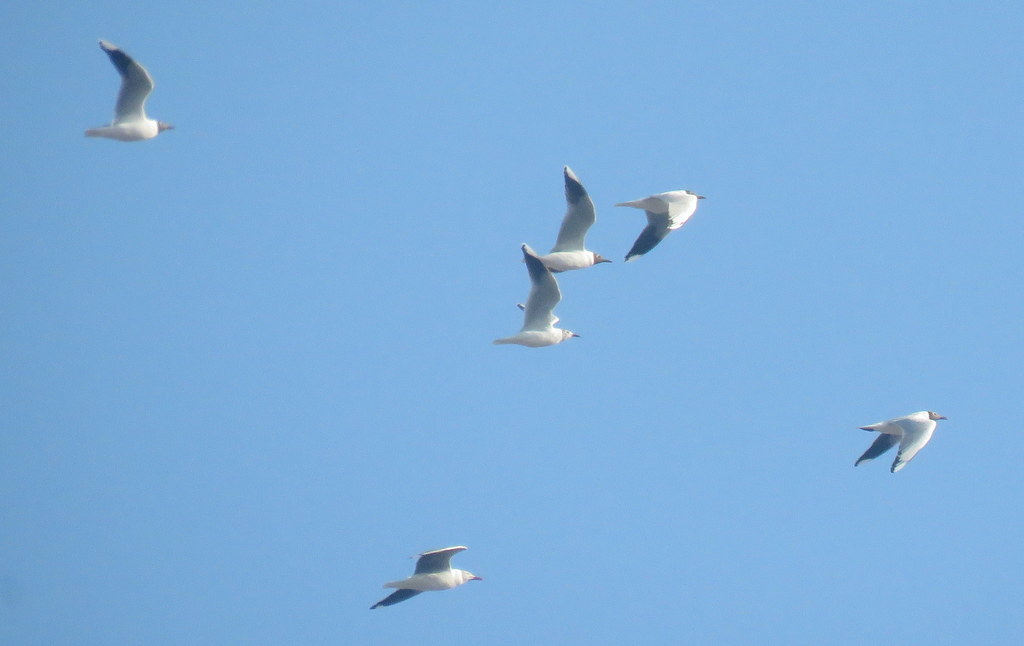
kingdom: Animalia
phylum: Chordata
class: Aves
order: Charadriiformes
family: Laridae
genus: Chroicocephalus
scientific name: Chroicocephalus maculipennis
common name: Brown-hooded gull
